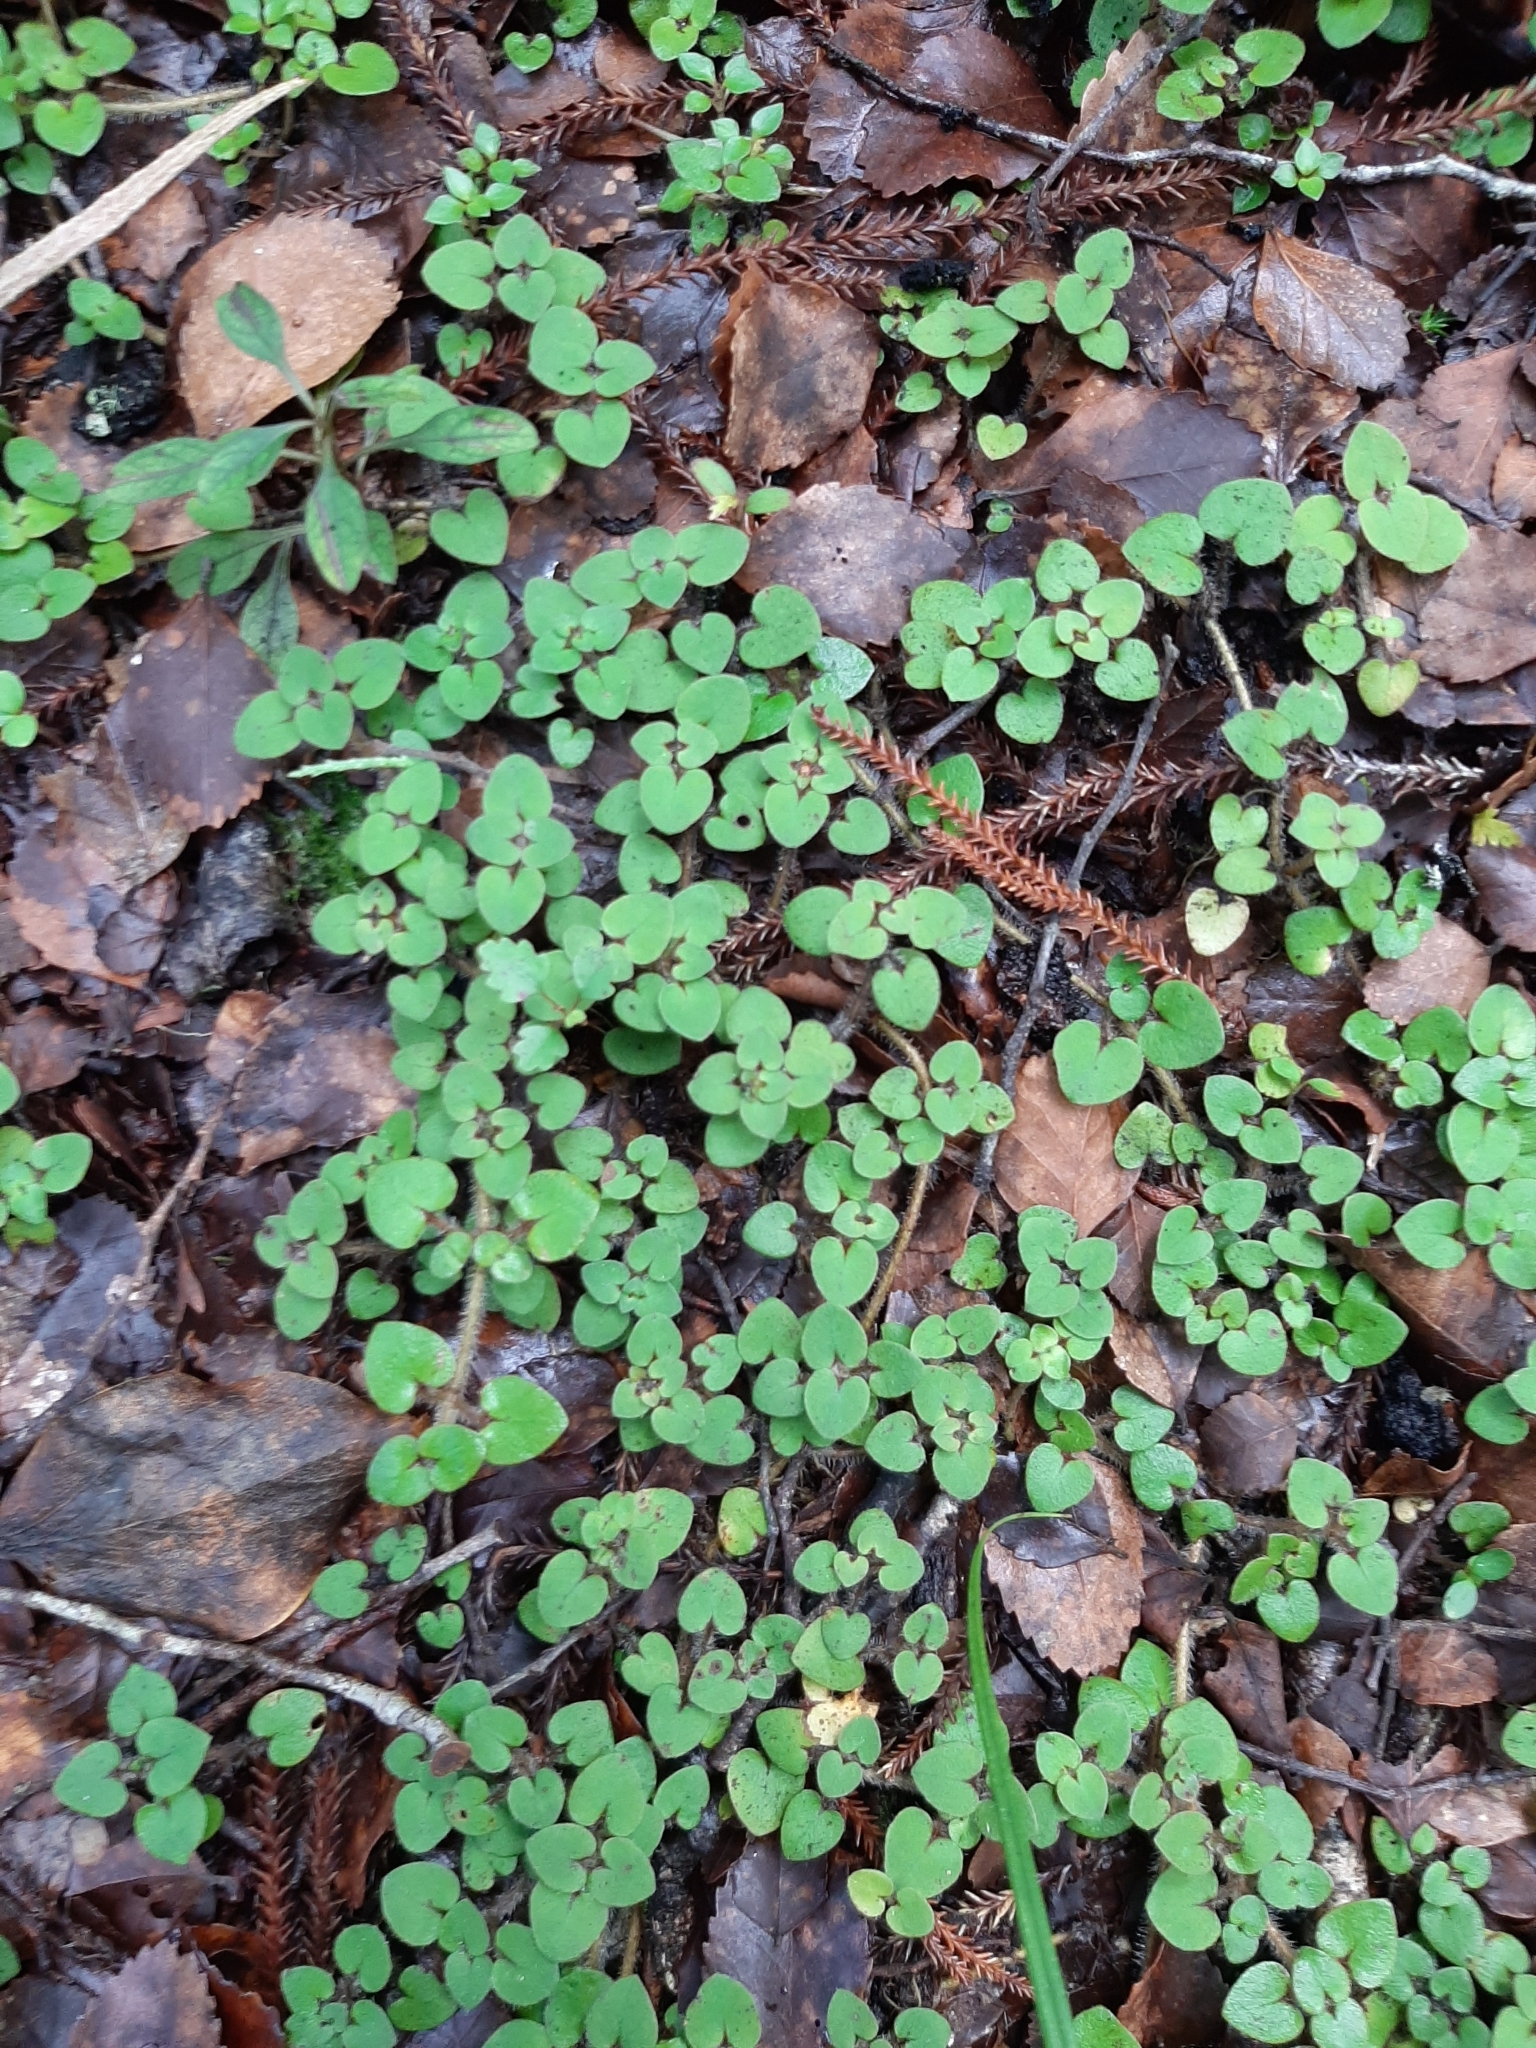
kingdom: Plantae
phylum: Tracheophyta
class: Magnoliopsida
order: Gentianales
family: Rubiaceae
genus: Nertera
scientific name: Nertera villosa
